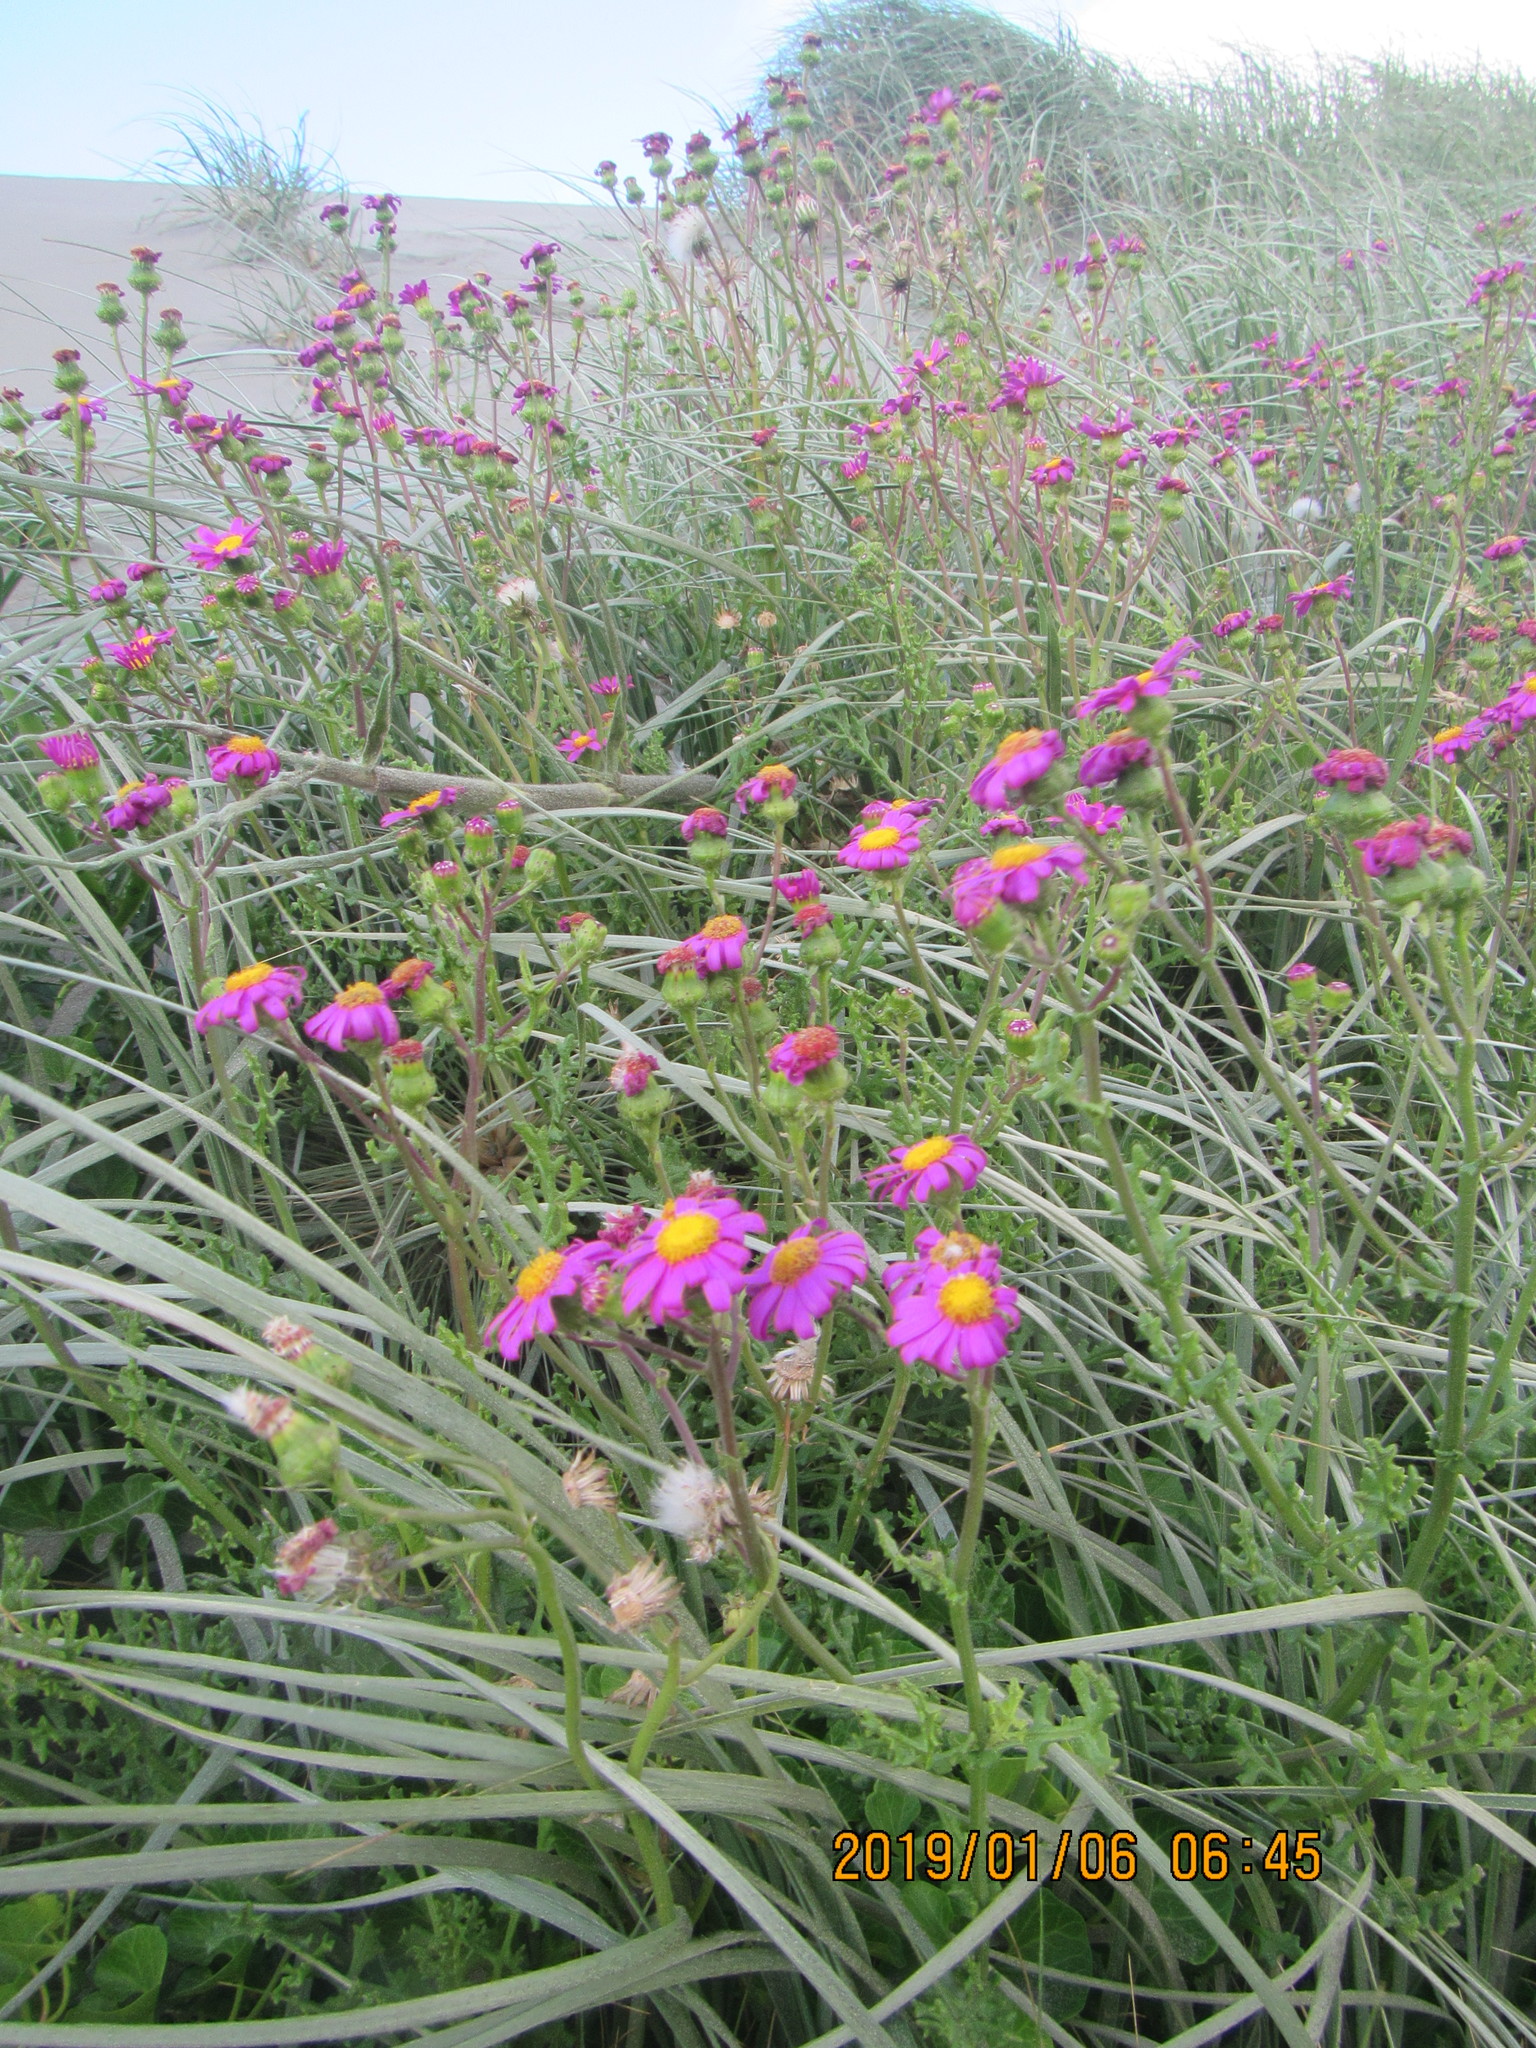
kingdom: Plantae
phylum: Tracheophyta
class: Magnoliopsida
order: Asterales
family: Asteraceae
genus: Senecio
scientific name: Senecio elegans
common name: Purple groundsel
